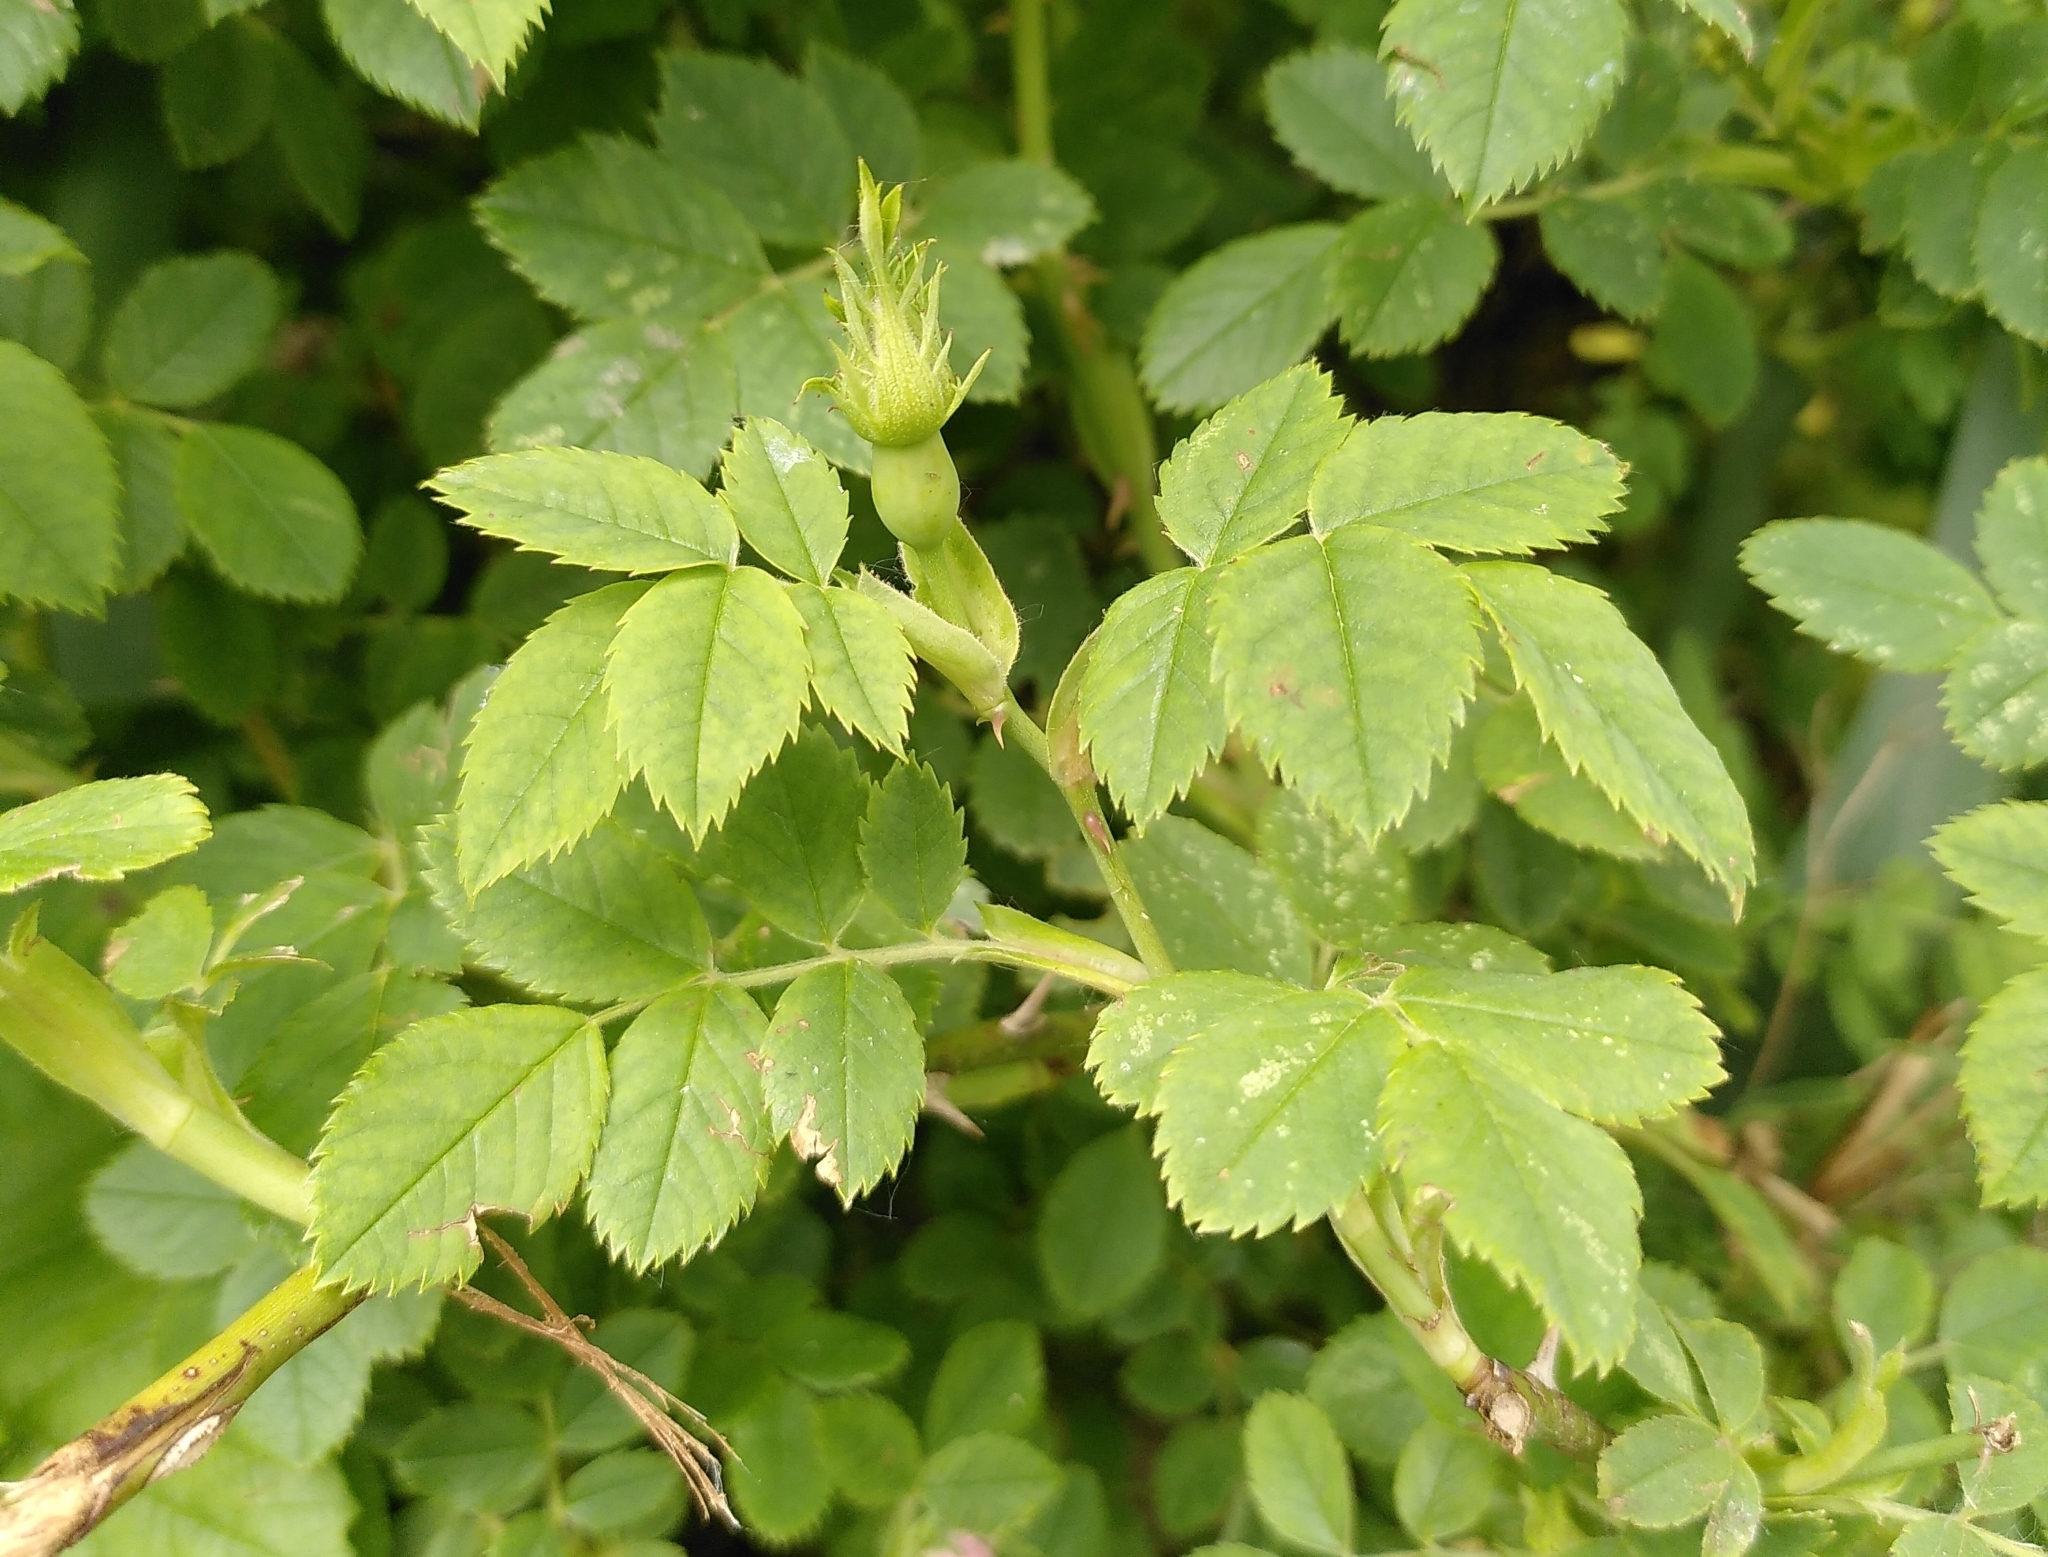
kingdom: Plantae
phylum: Tracheophyta
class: Magnoliopsida
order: Rosales
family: Rosaceae
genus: Rosa
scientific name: Rosa canina
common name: Dog rose
